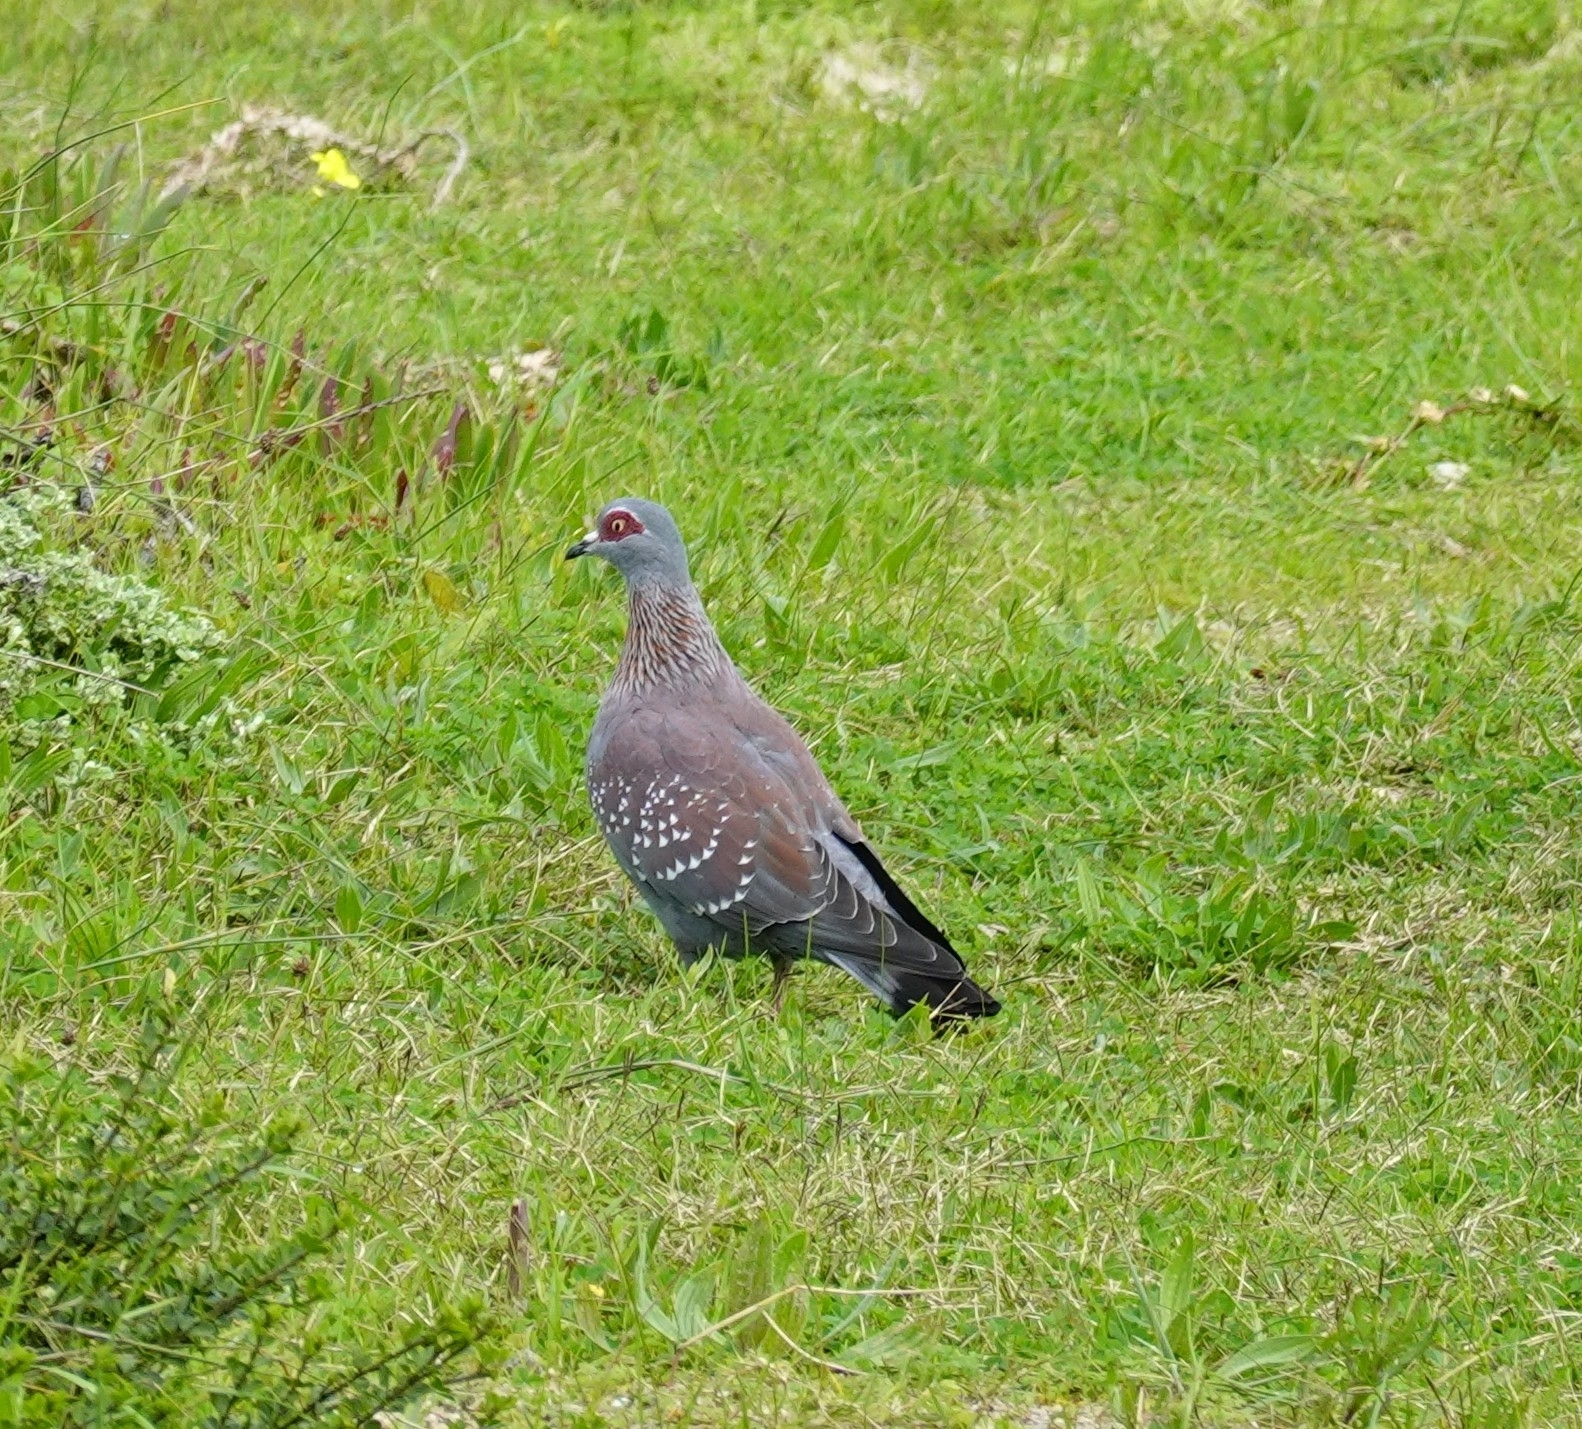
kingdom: Animalia
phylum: Chordata
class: Aves
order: Columbiformes
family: Columbidae
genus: Columba
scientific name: Columba guinea
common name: Speckled pigeon
